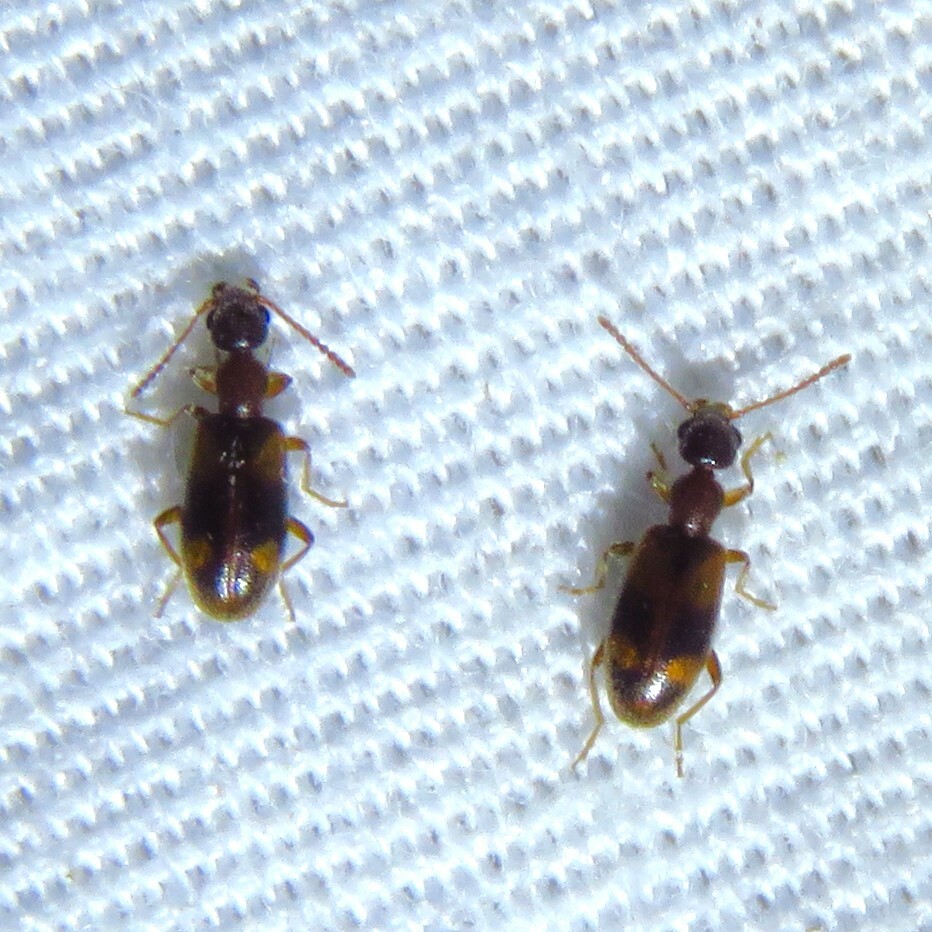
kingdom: Animalia
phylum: Arthropoda
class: Insecta
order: Coleoptera
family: Anthicidae
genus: Anthicus
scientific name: Anthicus cervinus
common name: Cloudy flower beetle
